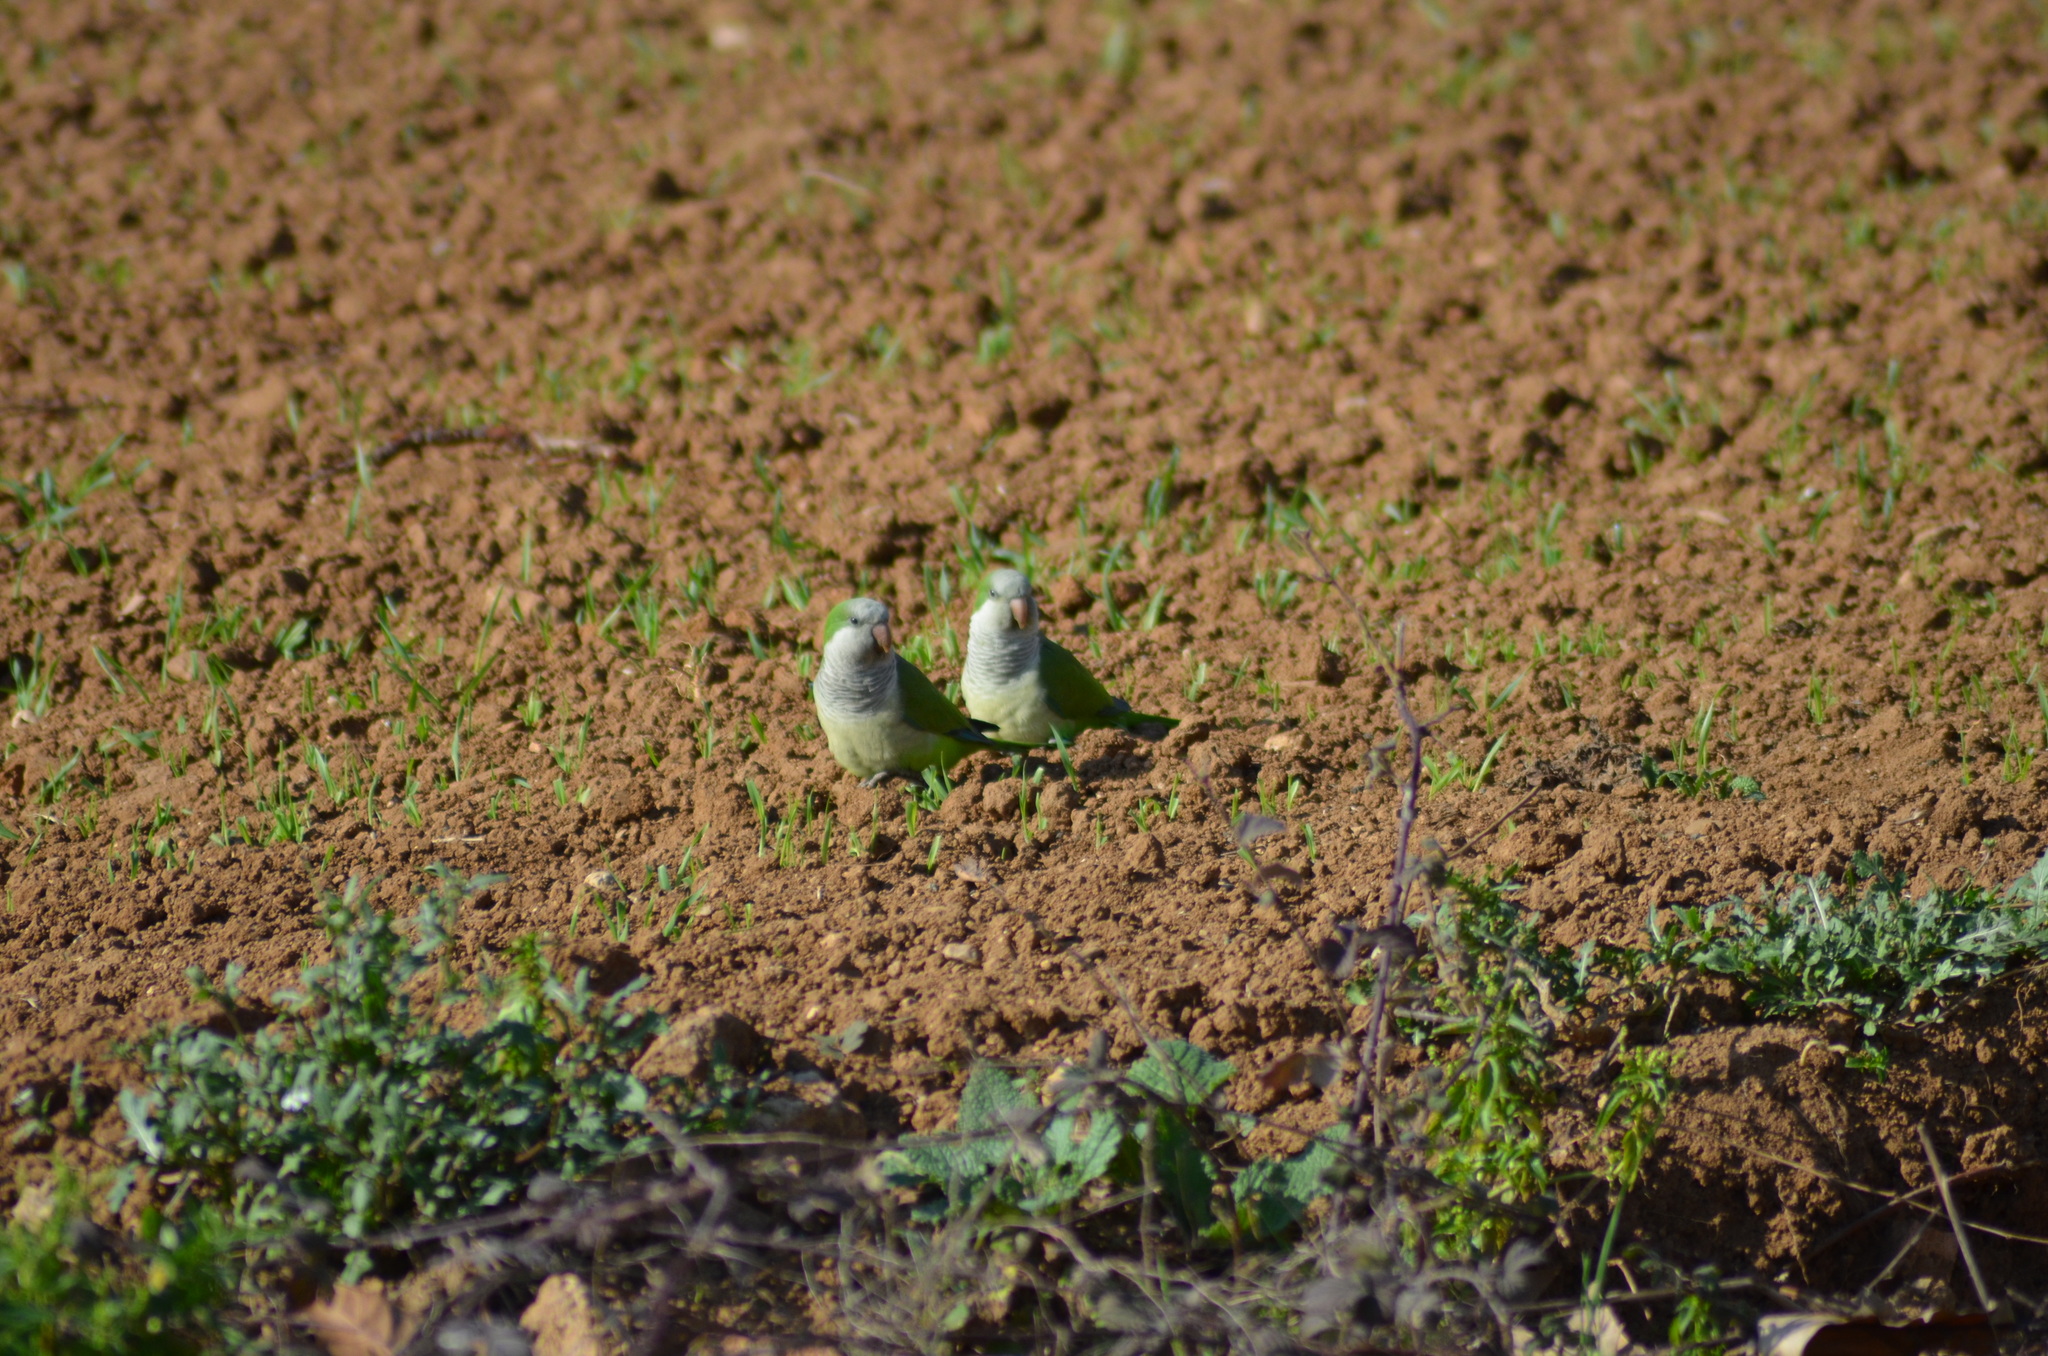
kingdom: Animalia
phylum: Chordata
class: Aves
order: Psittaciformes
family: Psittacidae
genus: Myiopsitta
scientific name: Myiopsitta monachus
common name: Monk parakeet
